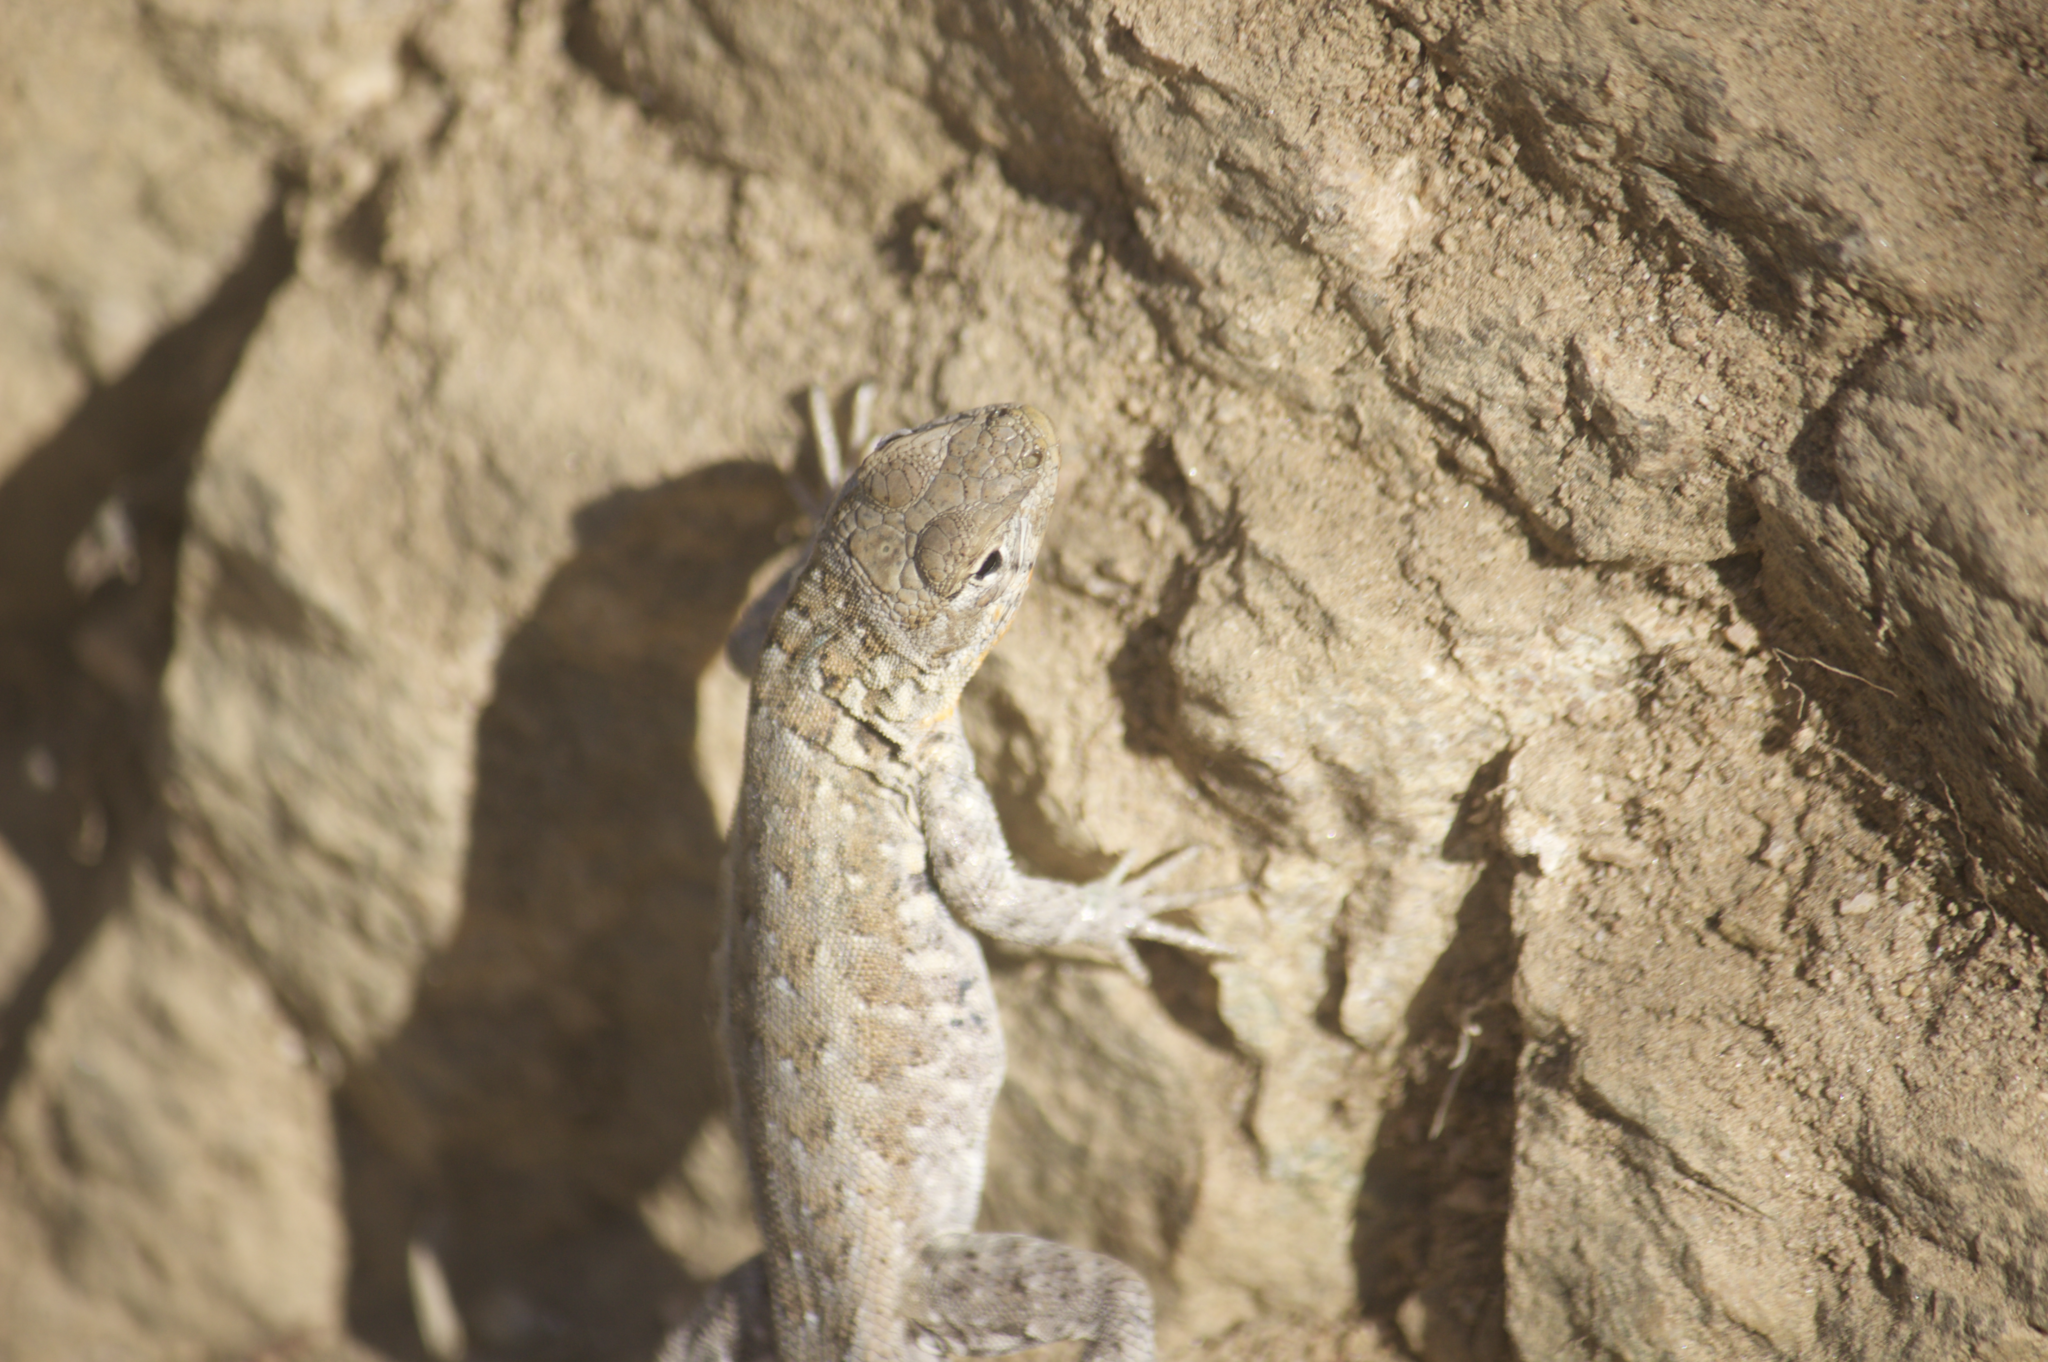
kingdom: Animalia
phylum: Chordata
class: Squamata
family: Phrynosomatidae
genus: Uta
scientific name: Uta stansburiana
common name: Side-blotched lizard
